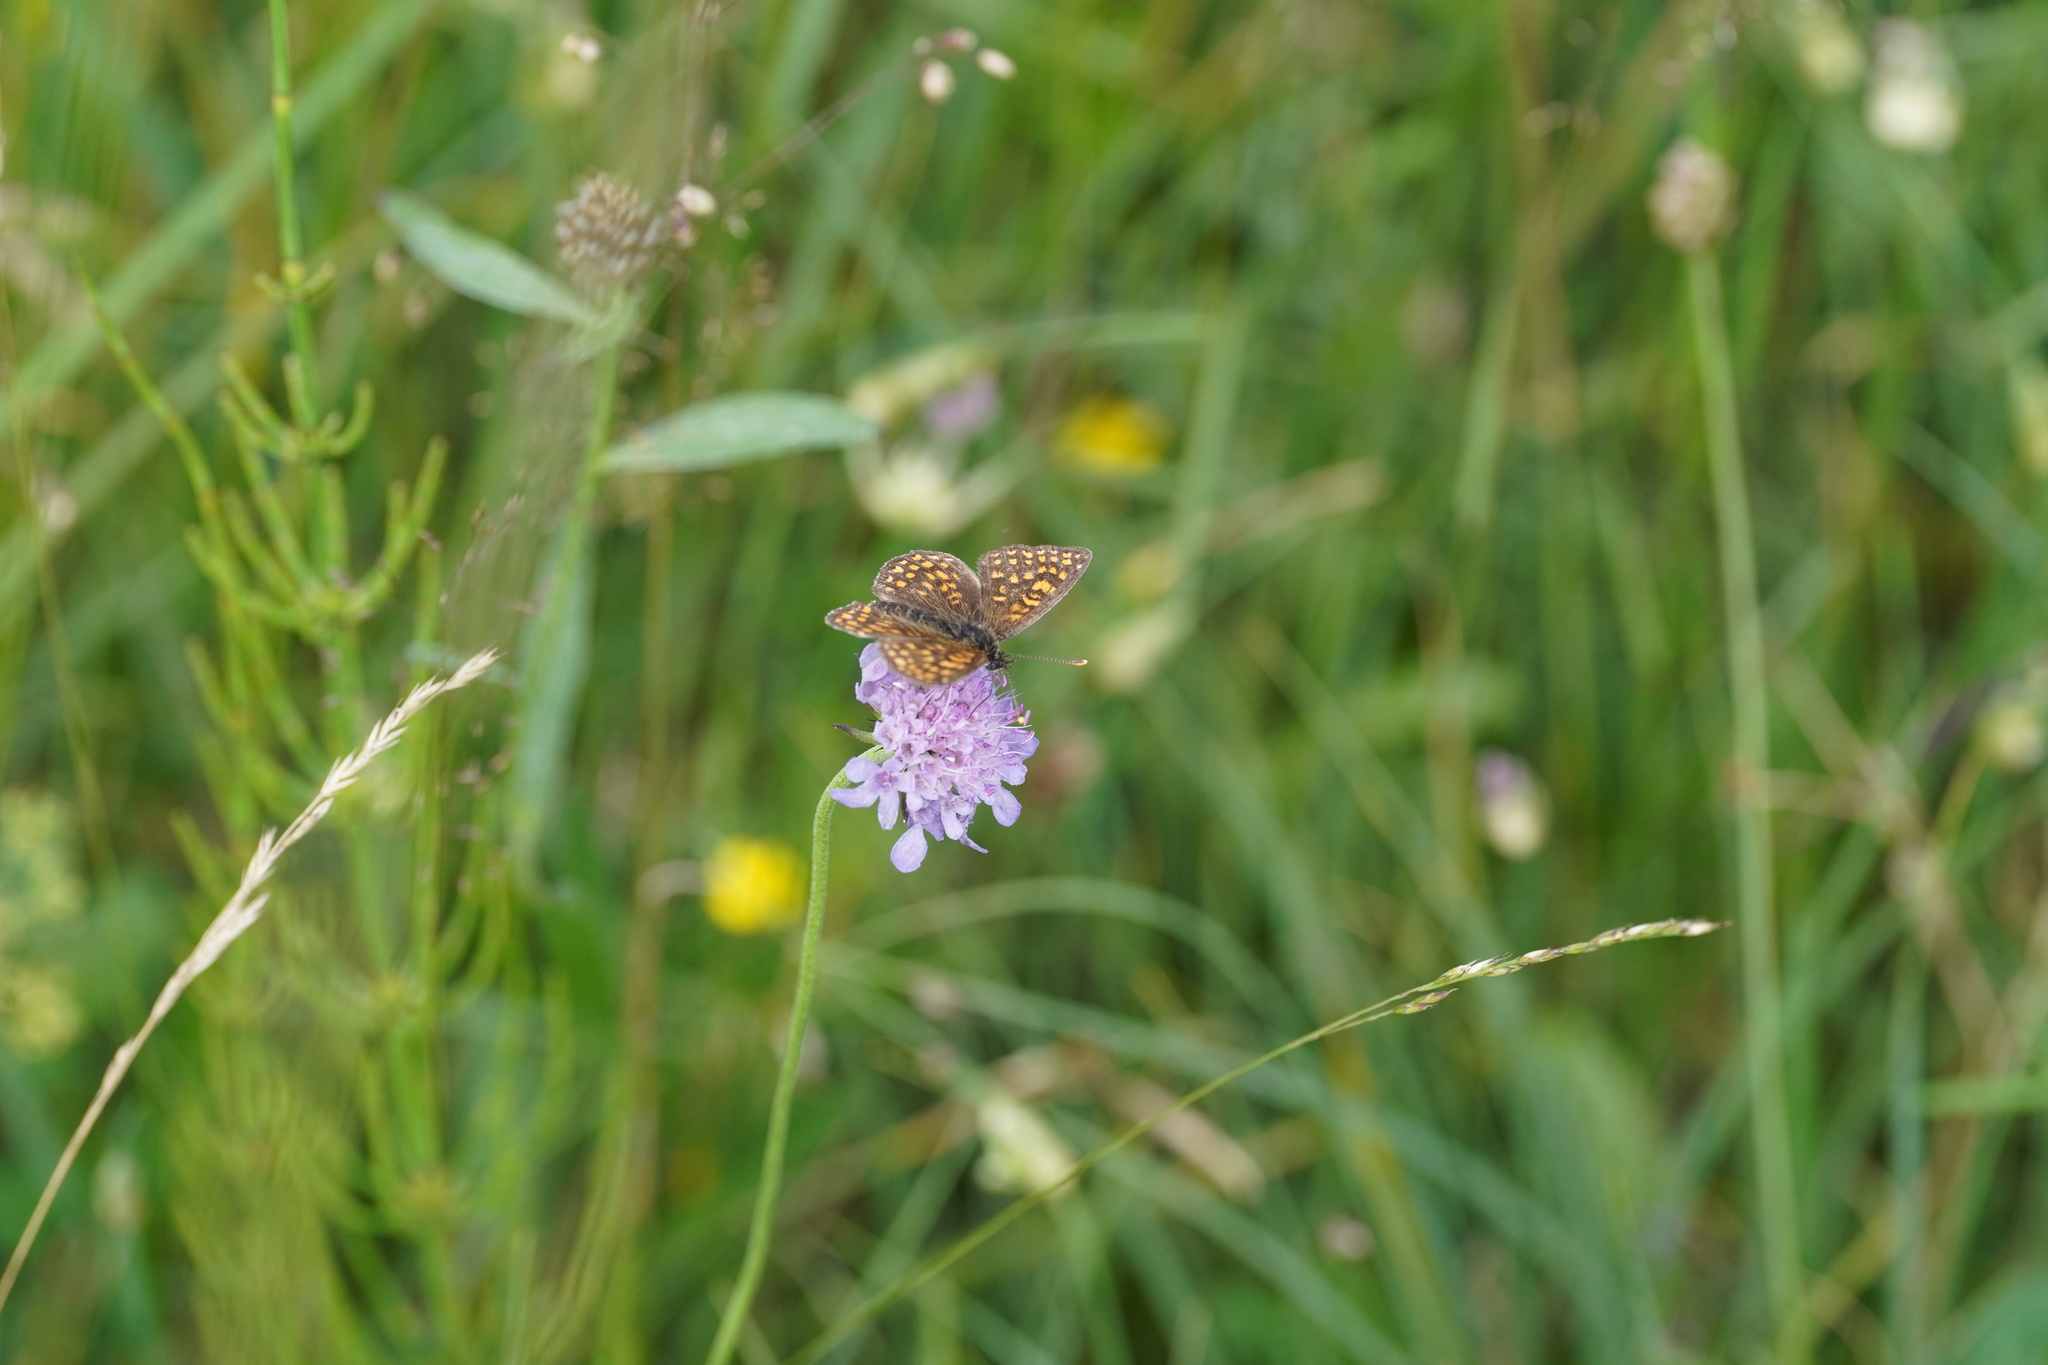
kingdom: Animalia
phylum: Arthropoda
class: Insecta
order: Lepidoptera
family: Nymphalidae
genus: Melitaea
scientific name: Melitaea athalia
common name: Heath fritillary
